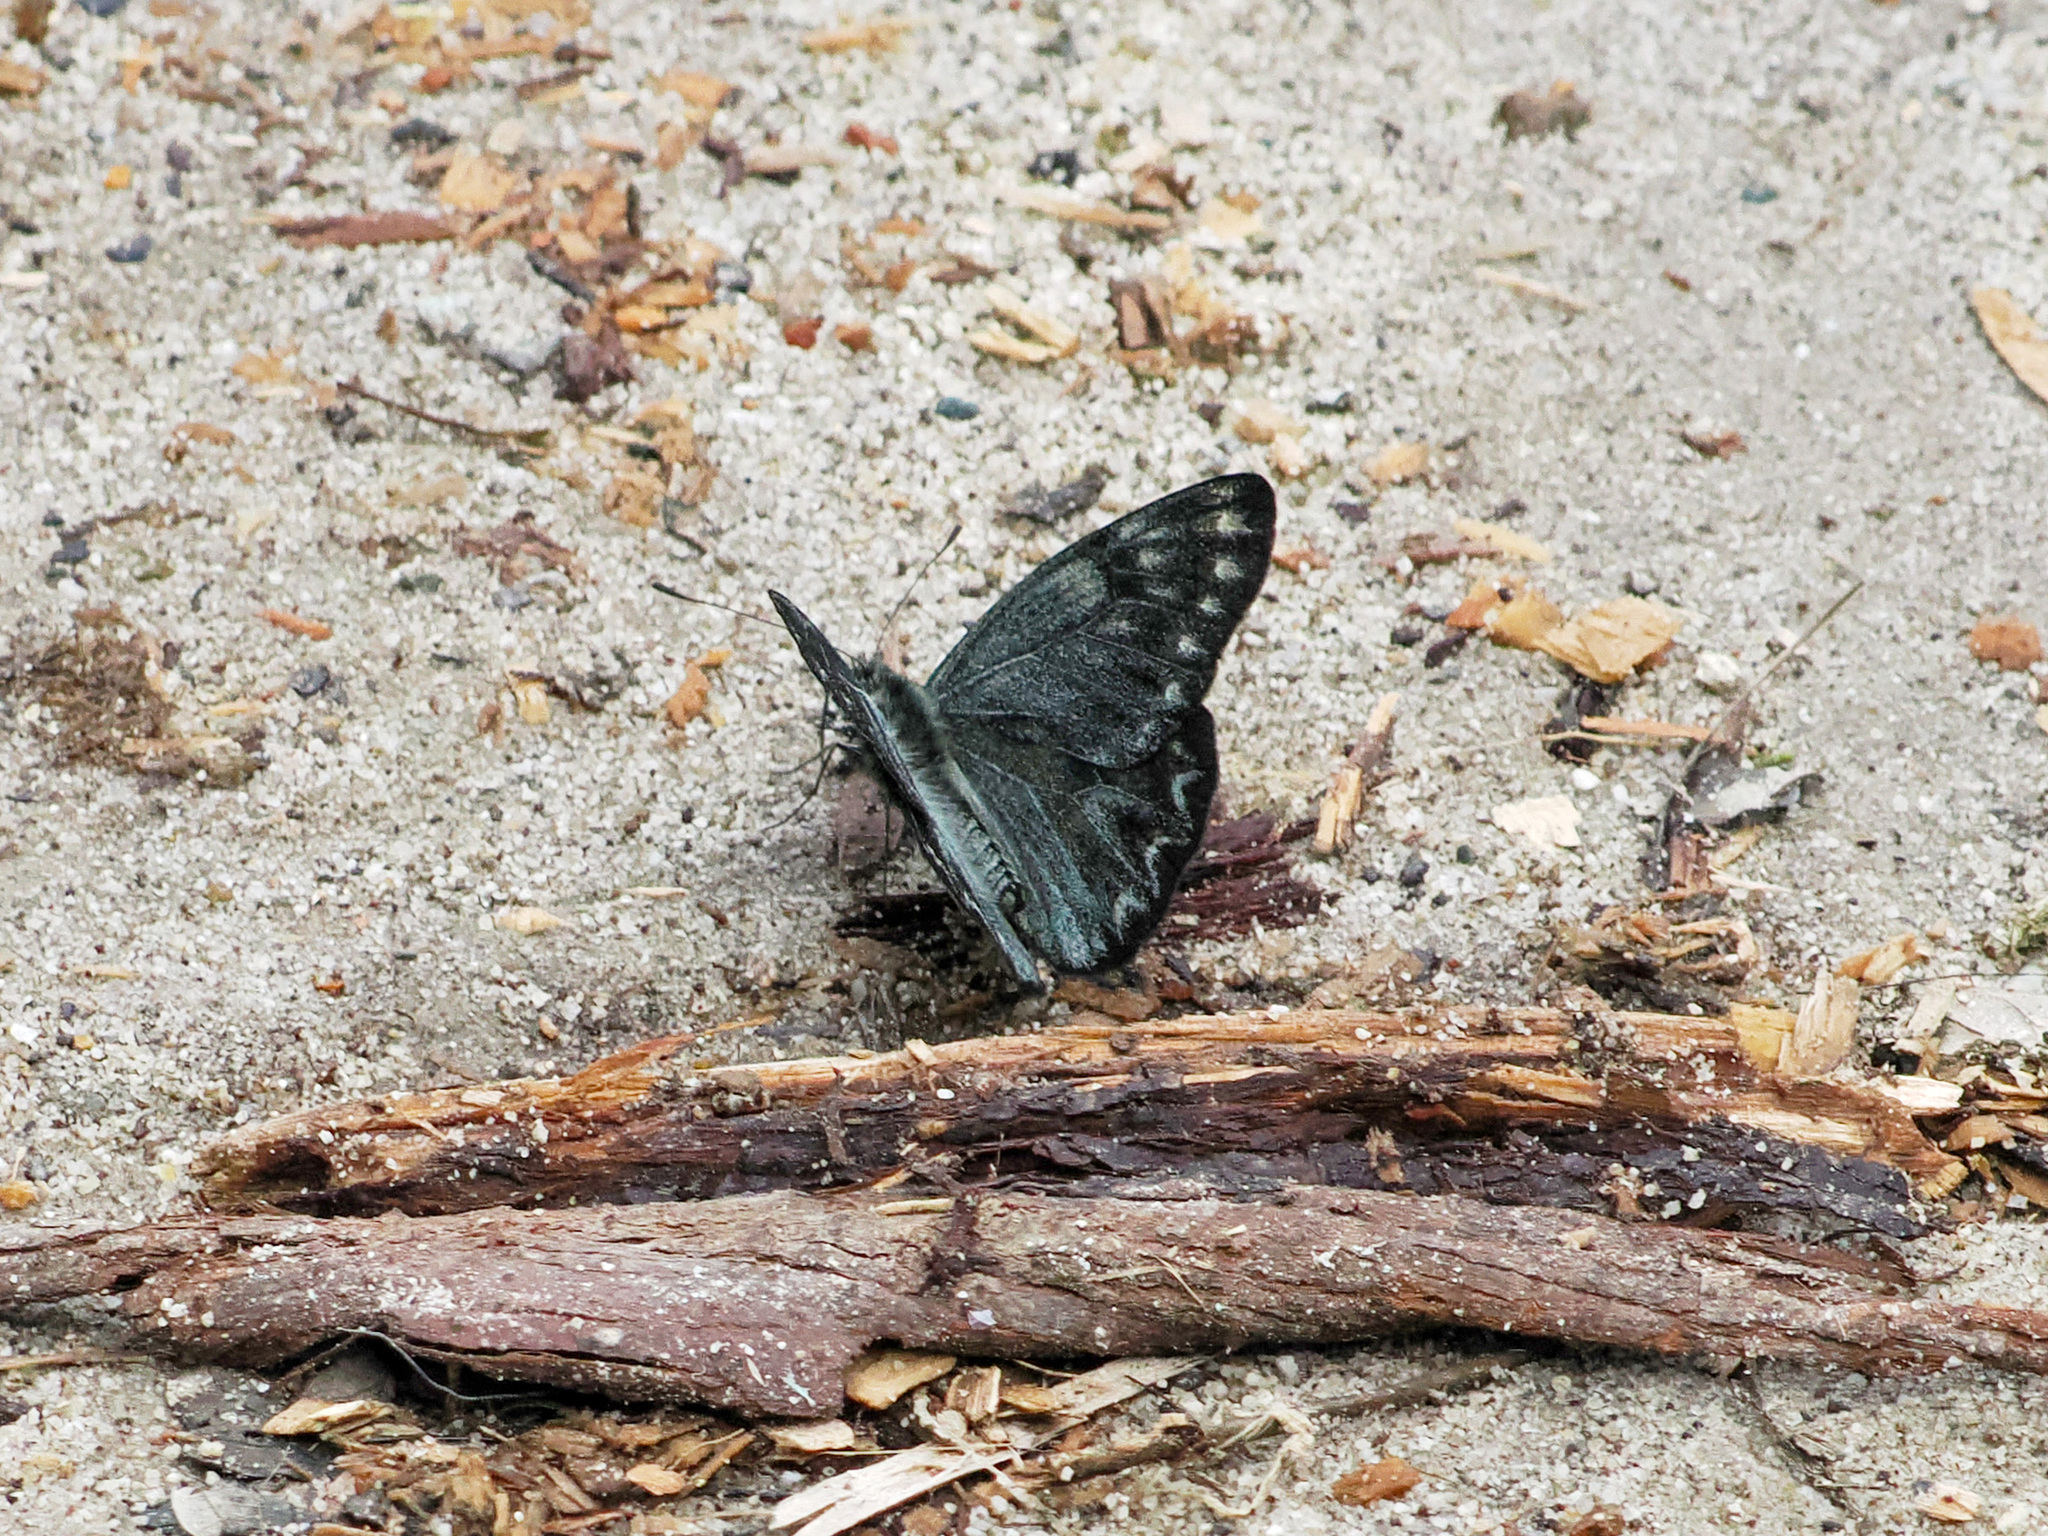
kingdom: Animalia
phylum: Arthropoda
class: Insecta
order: Lepidoptera
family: Pieridae
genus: Delias
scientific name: Delias surprisa
